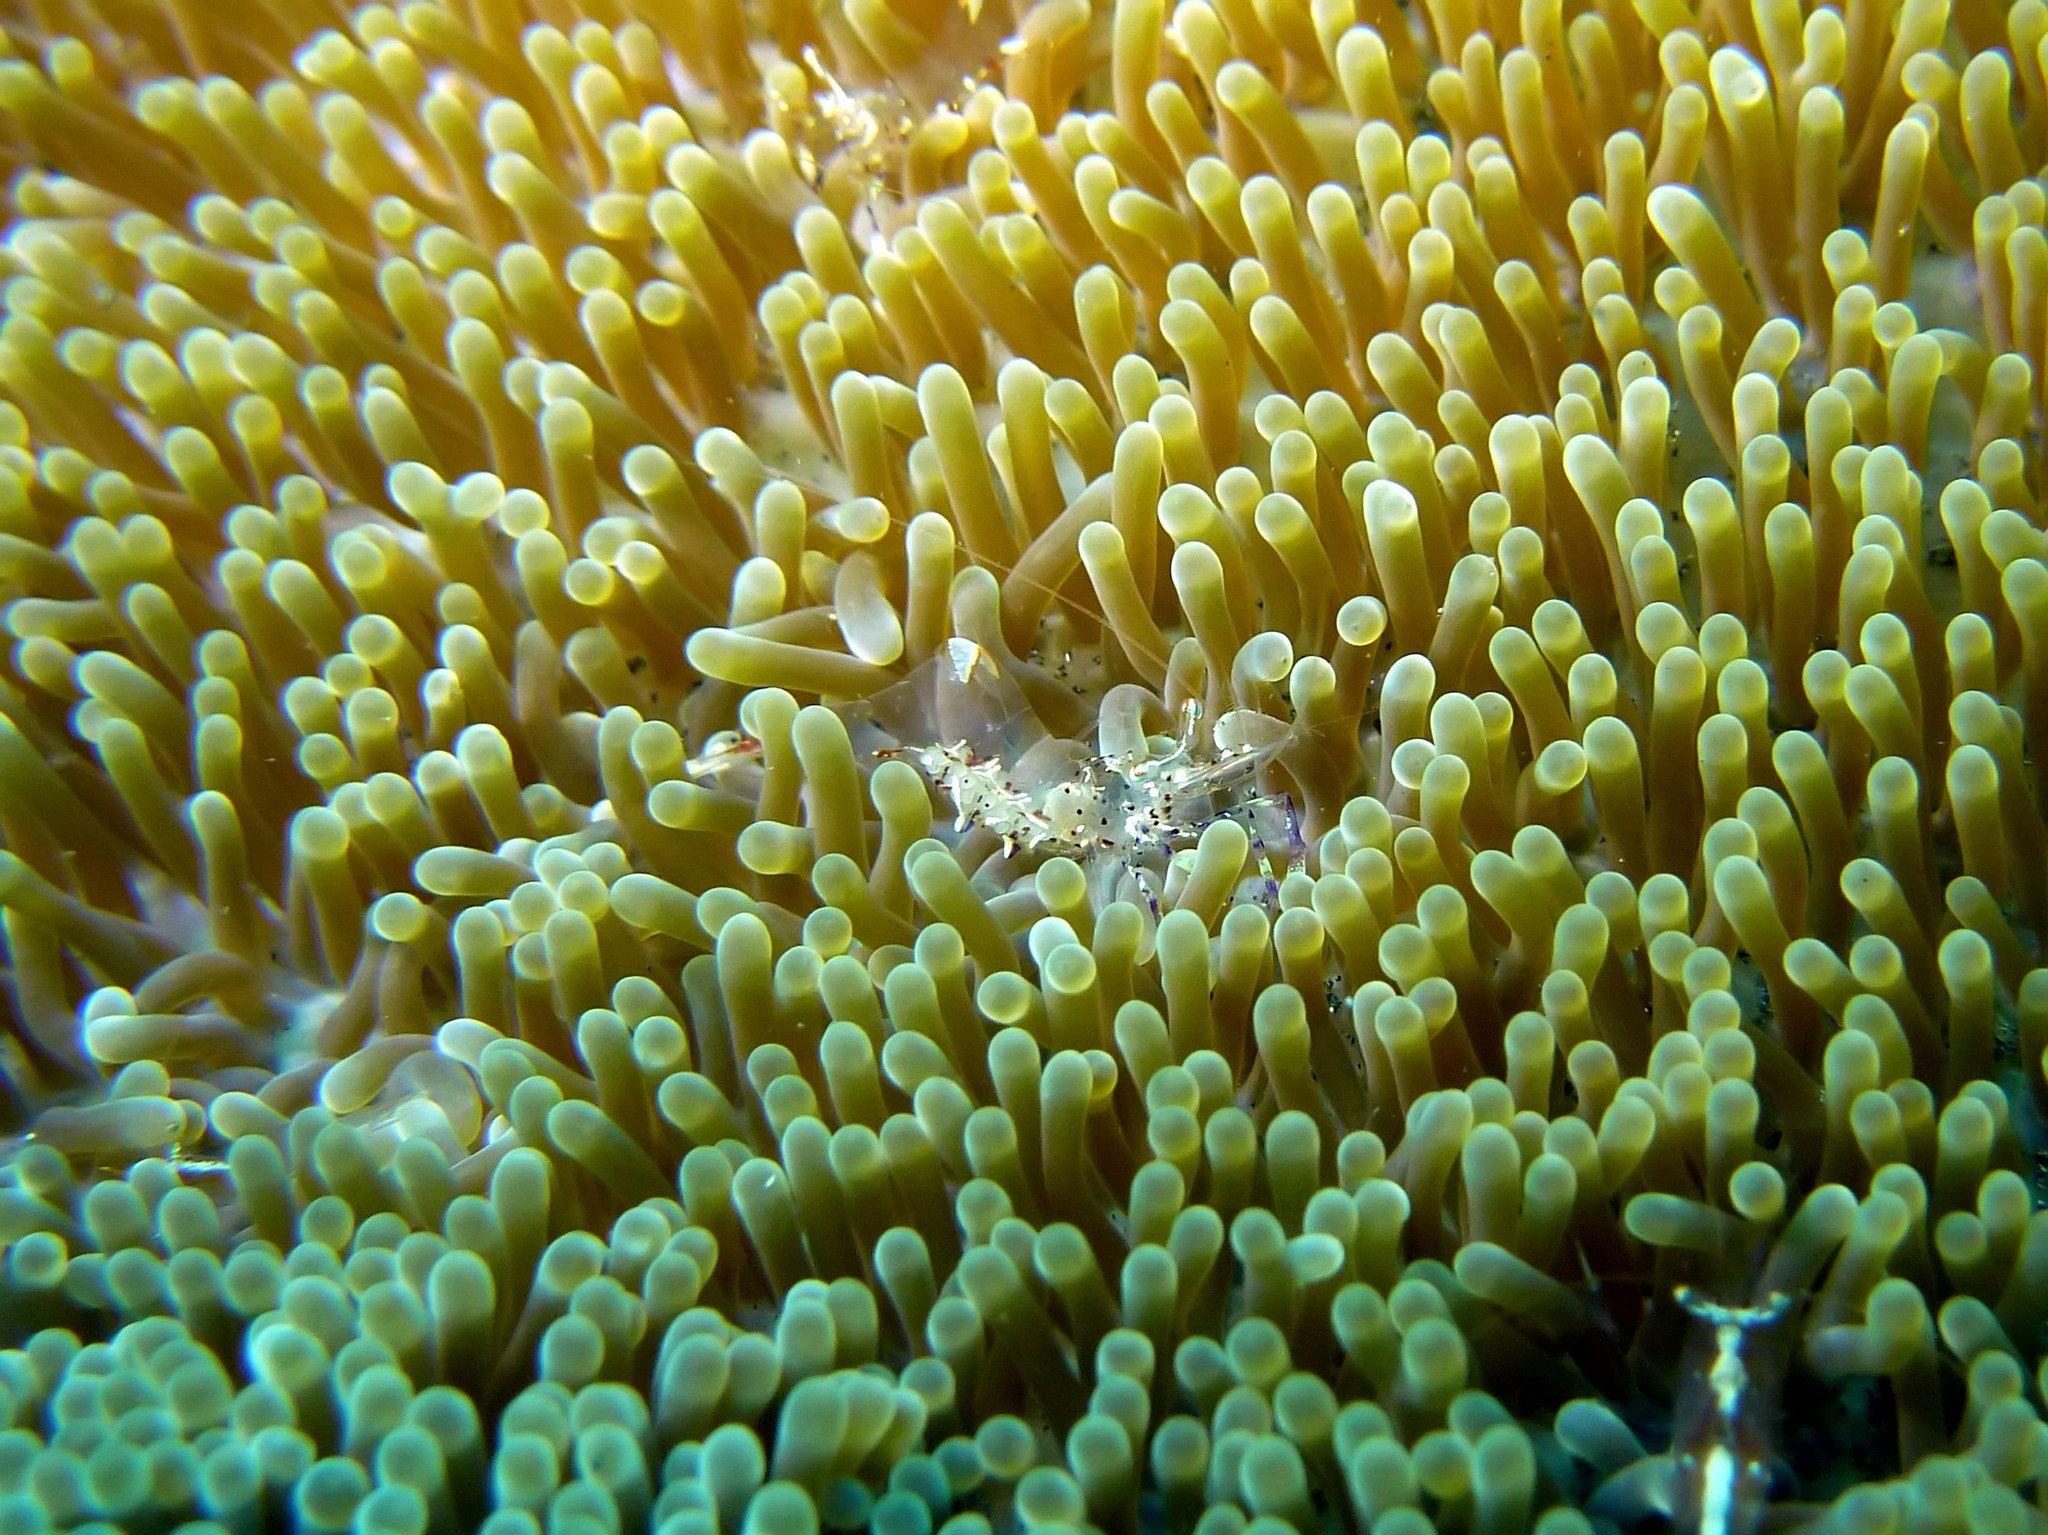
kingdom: Animalia
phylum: Arthropoda
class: Malacostraca
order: Decapoda
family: Palaemonidae
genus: Ancylomenes
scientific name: Ancylomenes holthuisi
